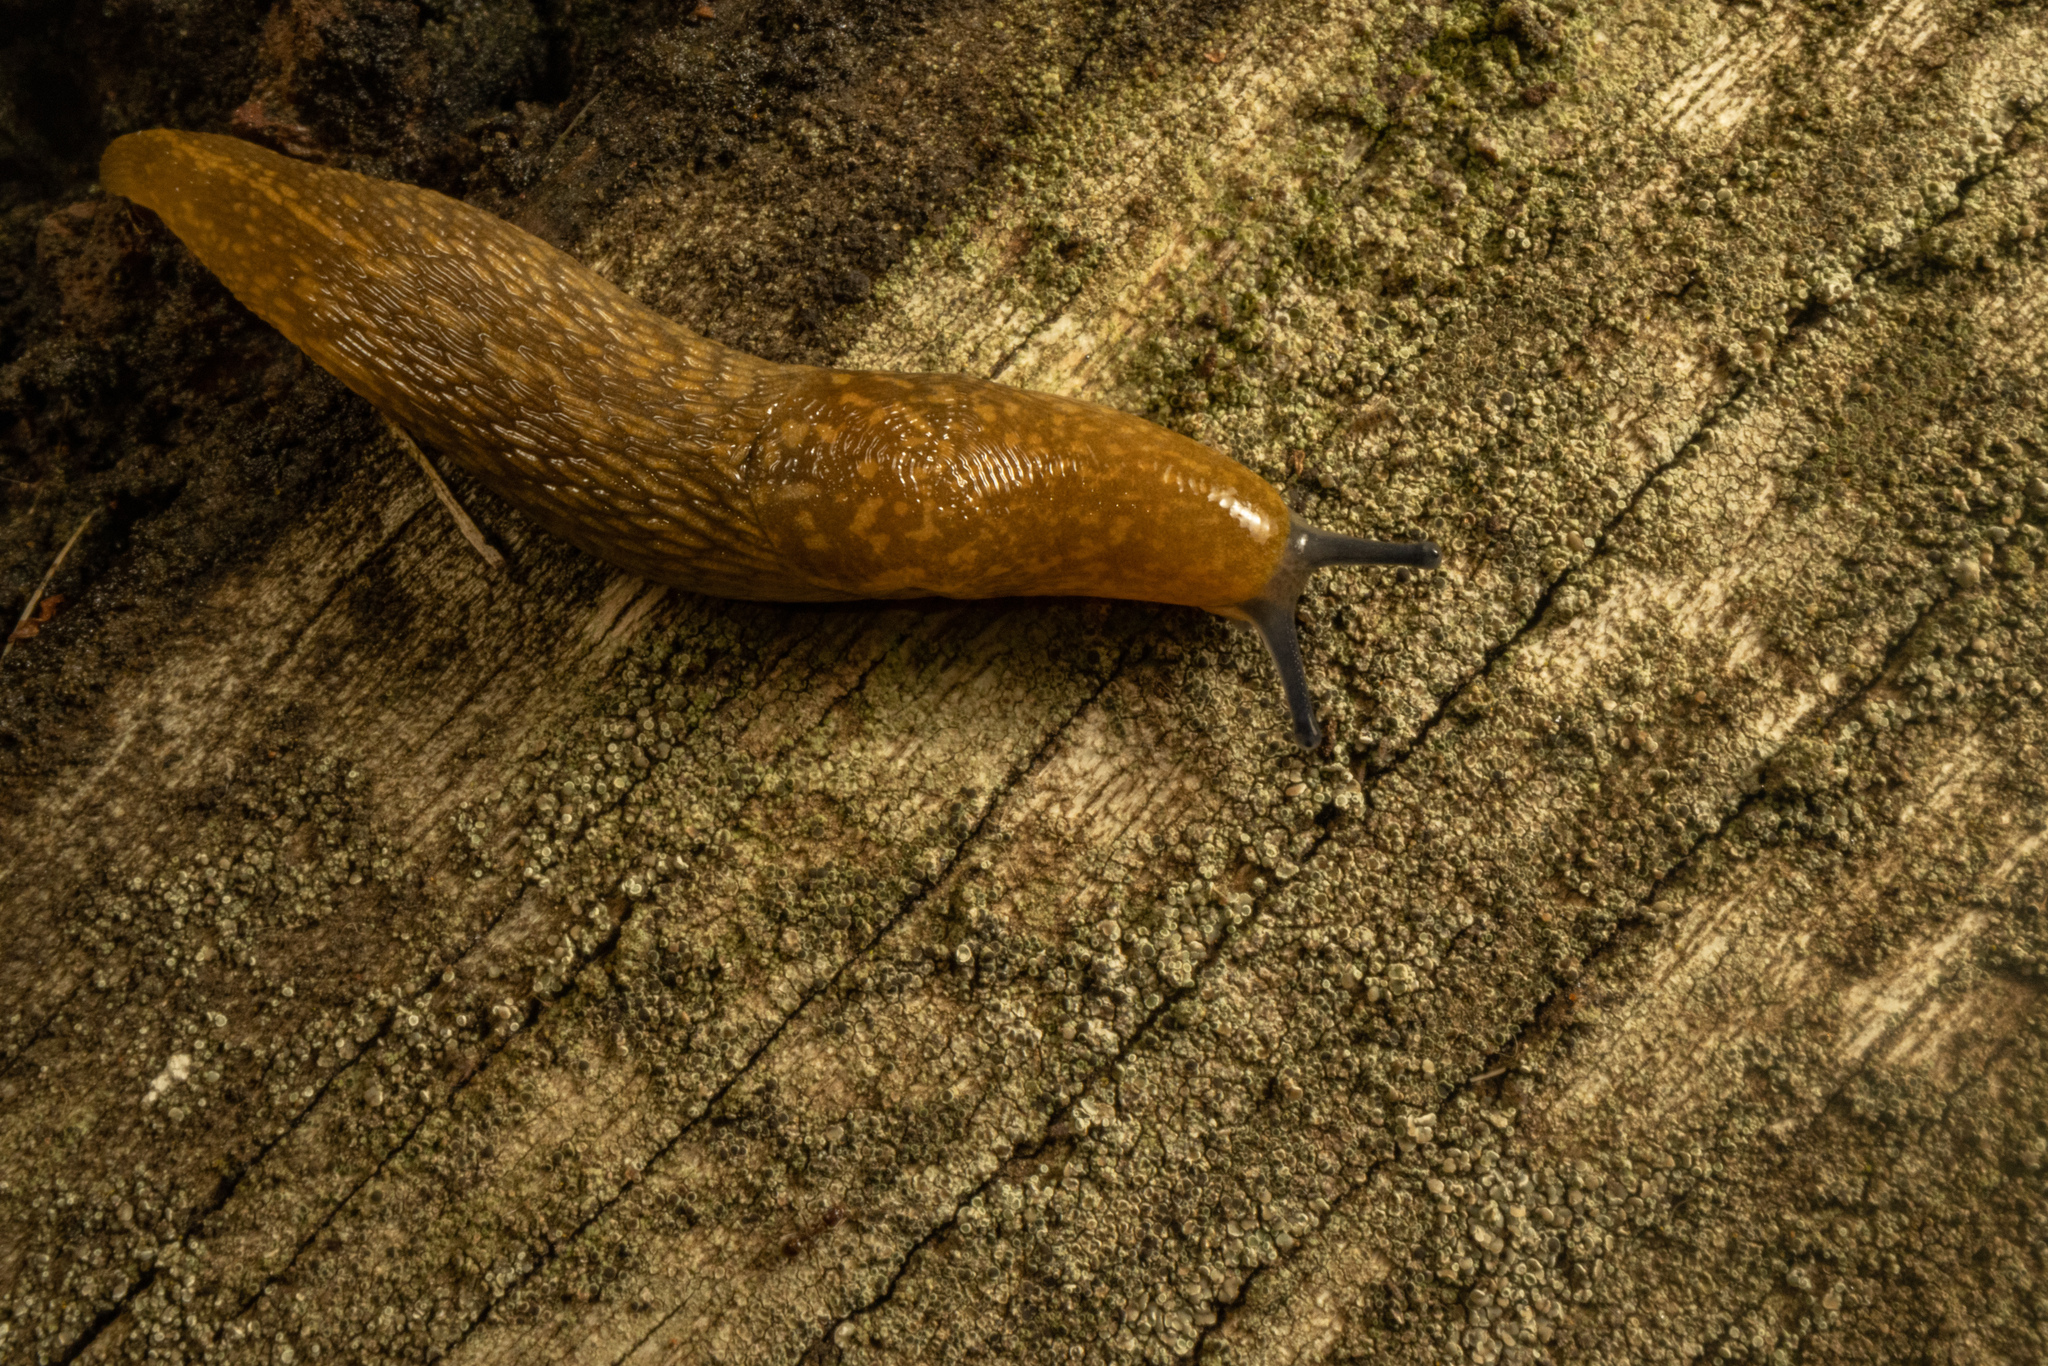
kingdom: Animalia
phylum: Mollusca
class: Gastropoda
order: Stylommatophora
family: Limacidae
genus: Limacus
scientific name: Limacus flavus
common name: Yellow gardenslug
